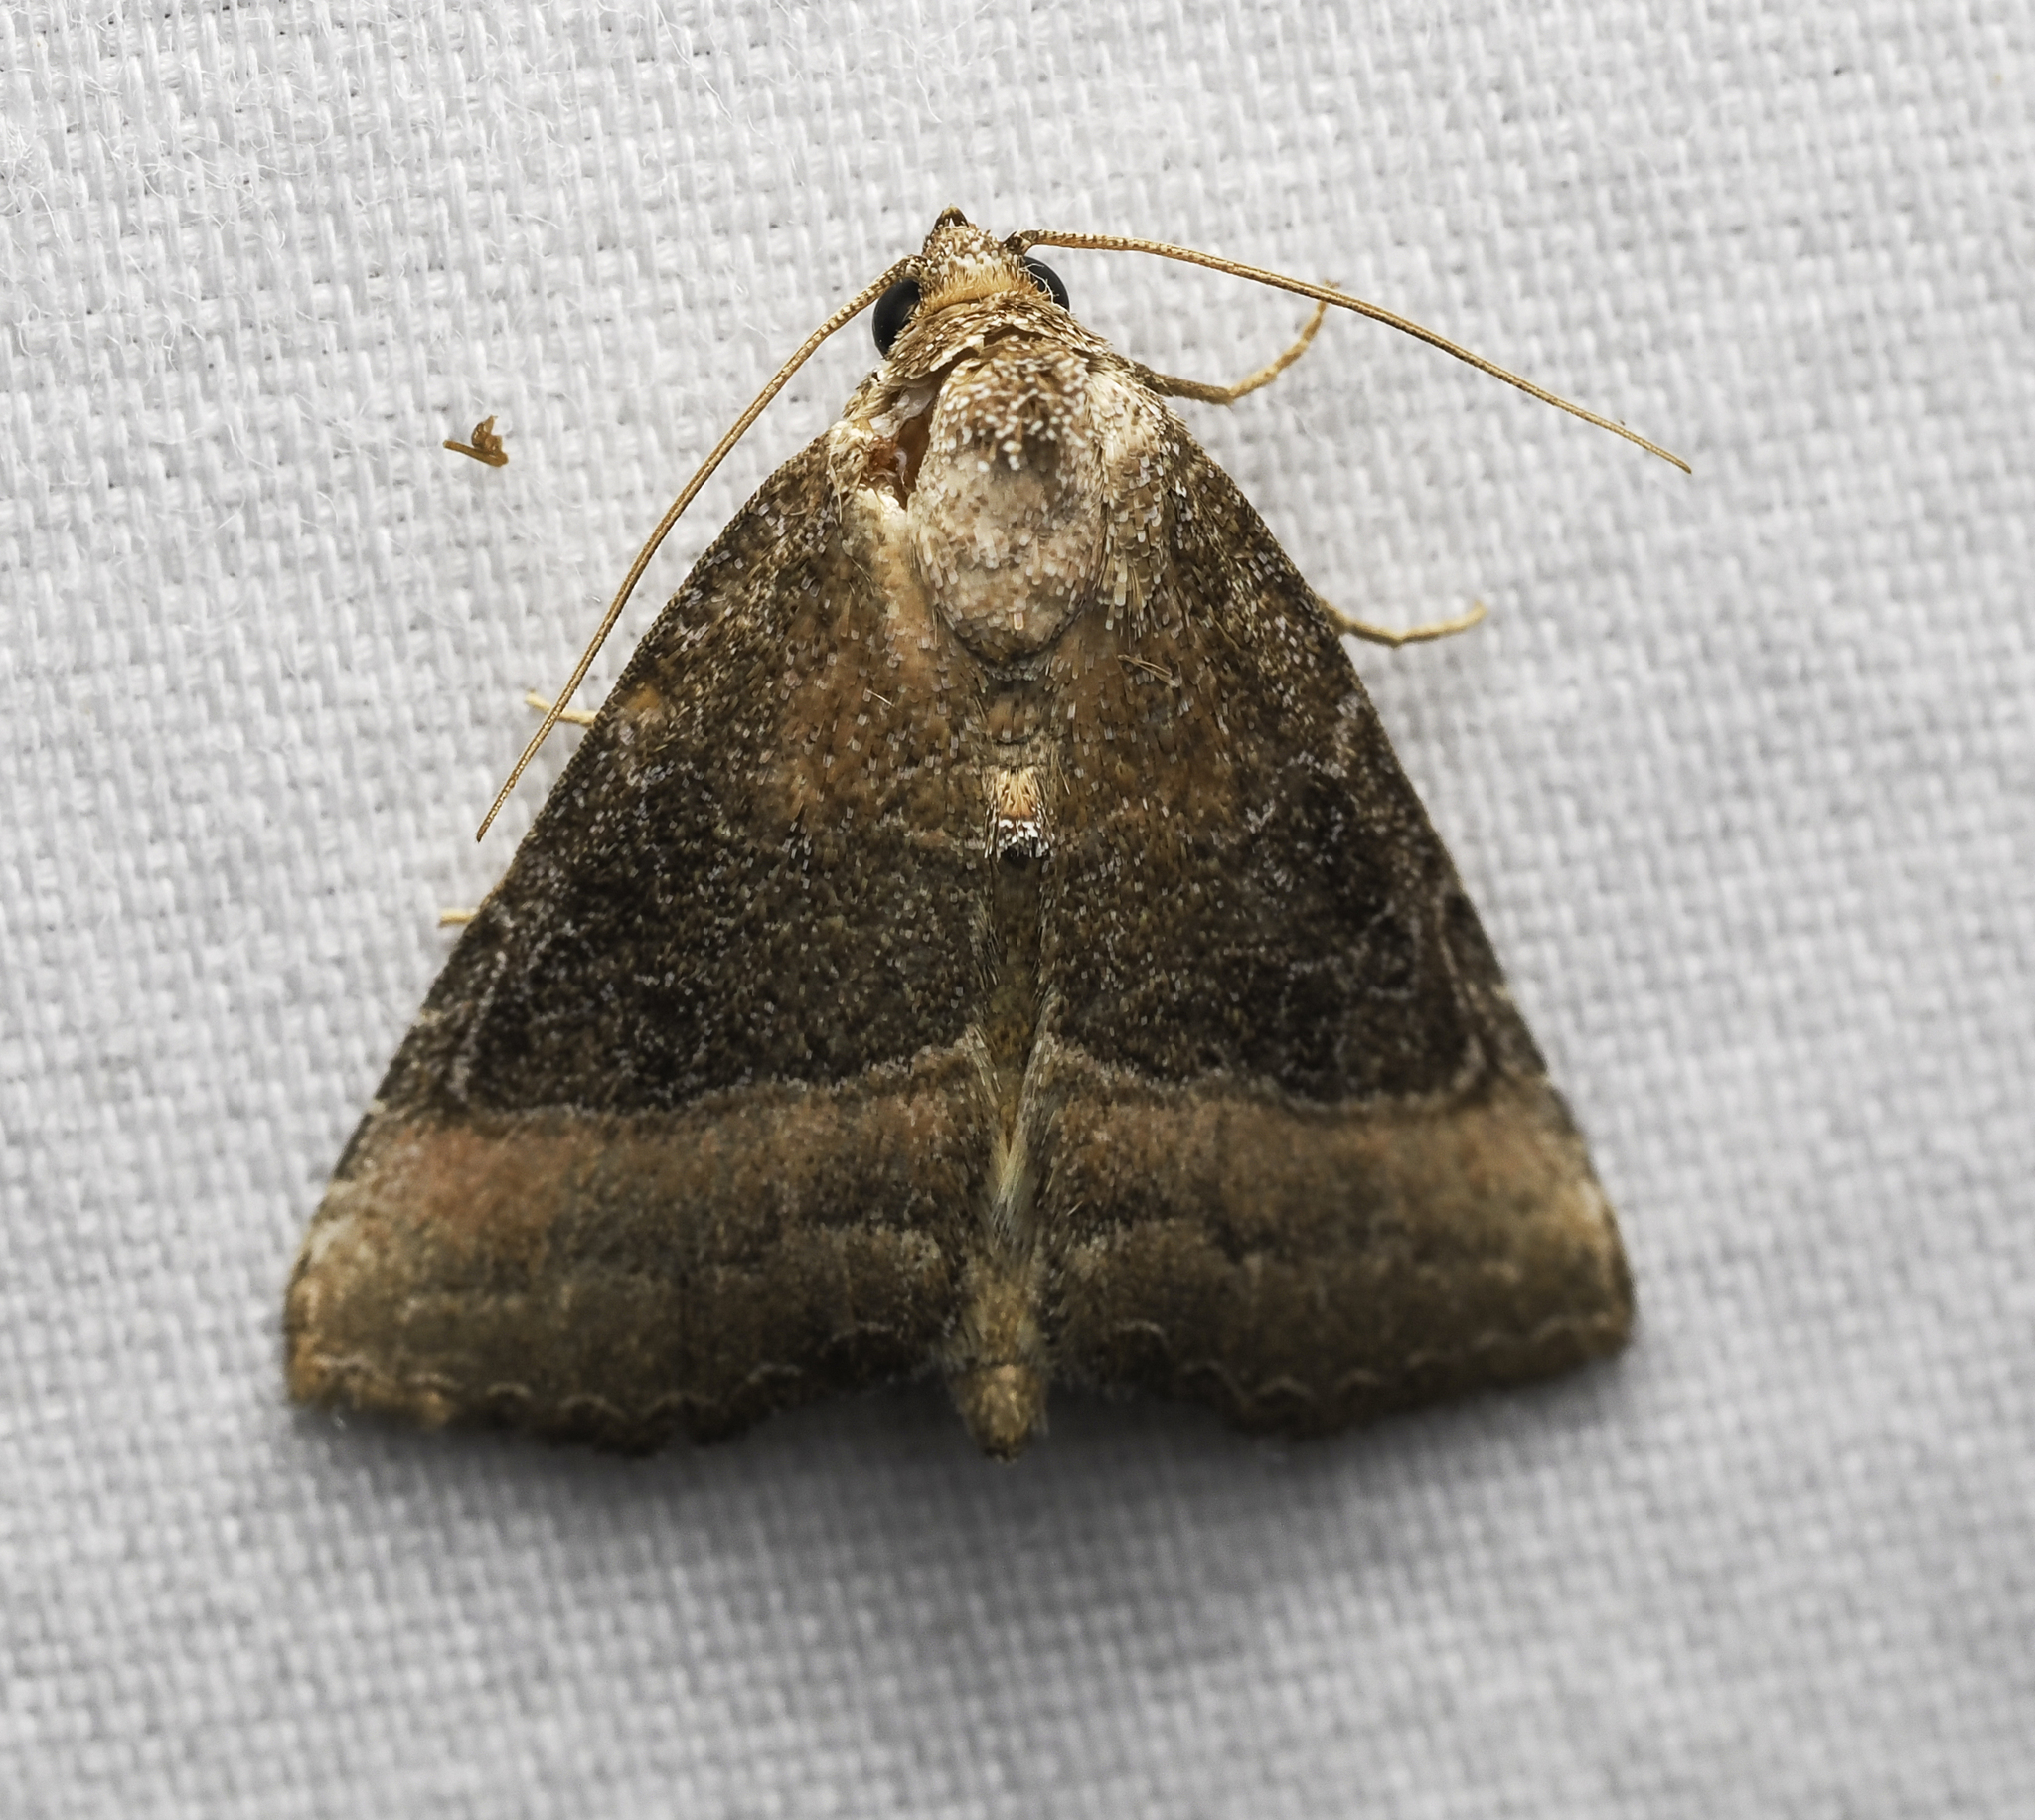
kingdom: Animalia
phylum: Arthropoda
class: Insecta
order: Lepidoptera
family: Noctuidae
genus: Ogdoconta
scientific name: Ogdoconta cinereola
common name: Common pinkband
